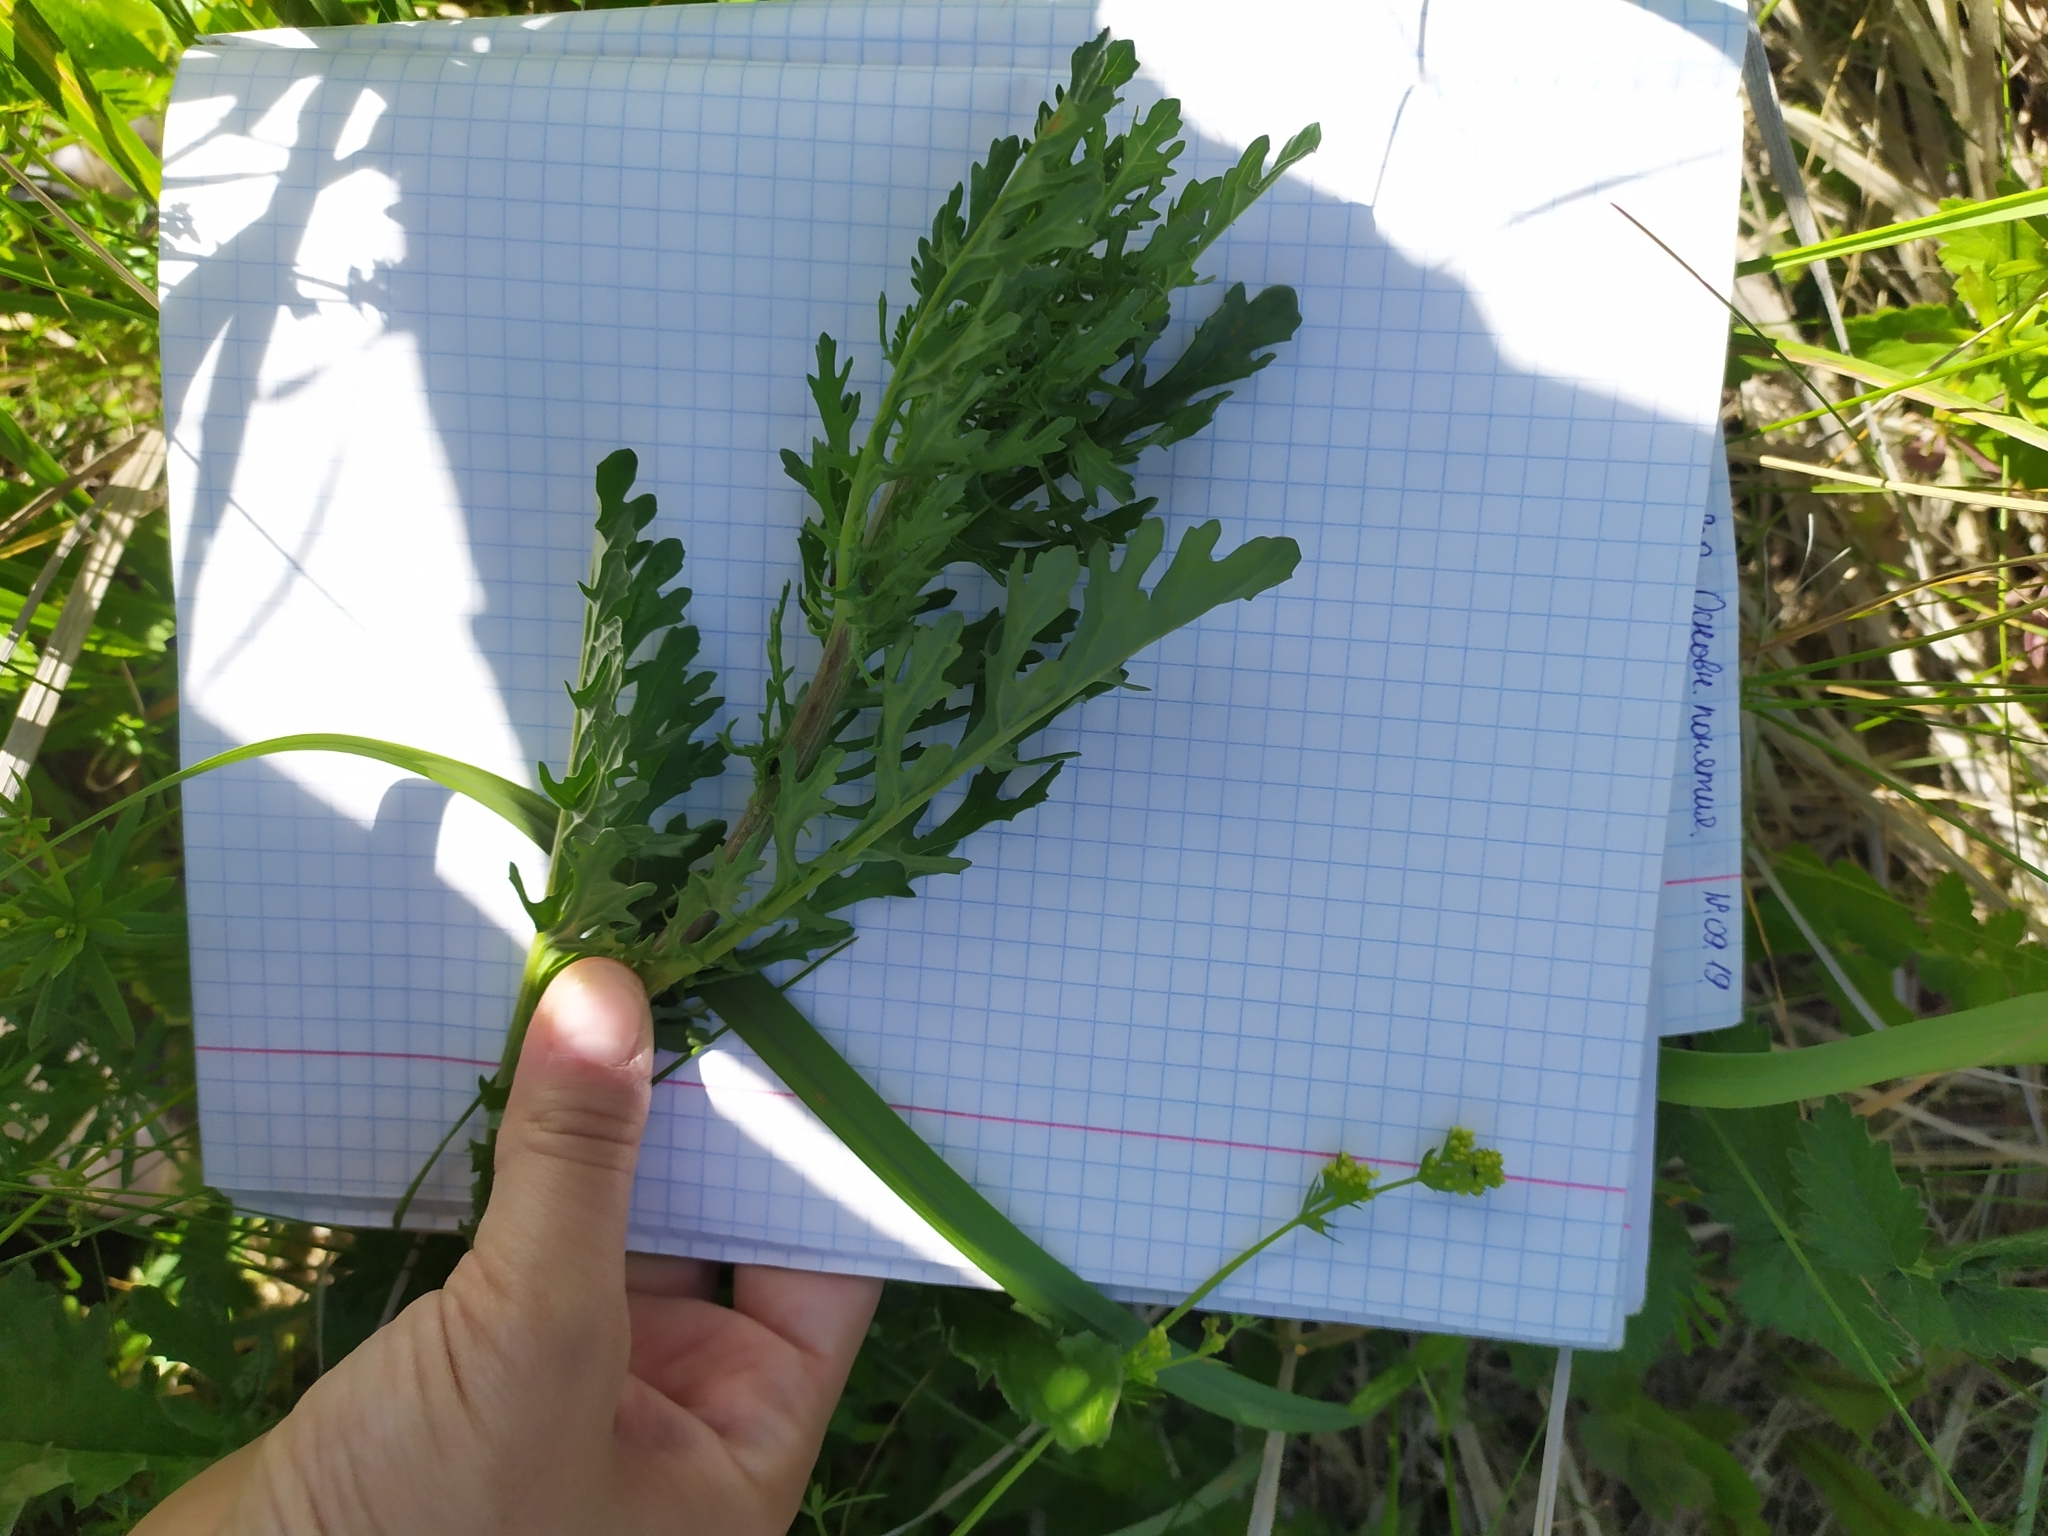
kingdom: Plantae
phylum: Tracheophyta
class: Magnoliopsida
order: Asterales
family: Asteraceae
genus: Jacobaea
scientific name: Jacobaea vulgaris
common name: Stinking willie
